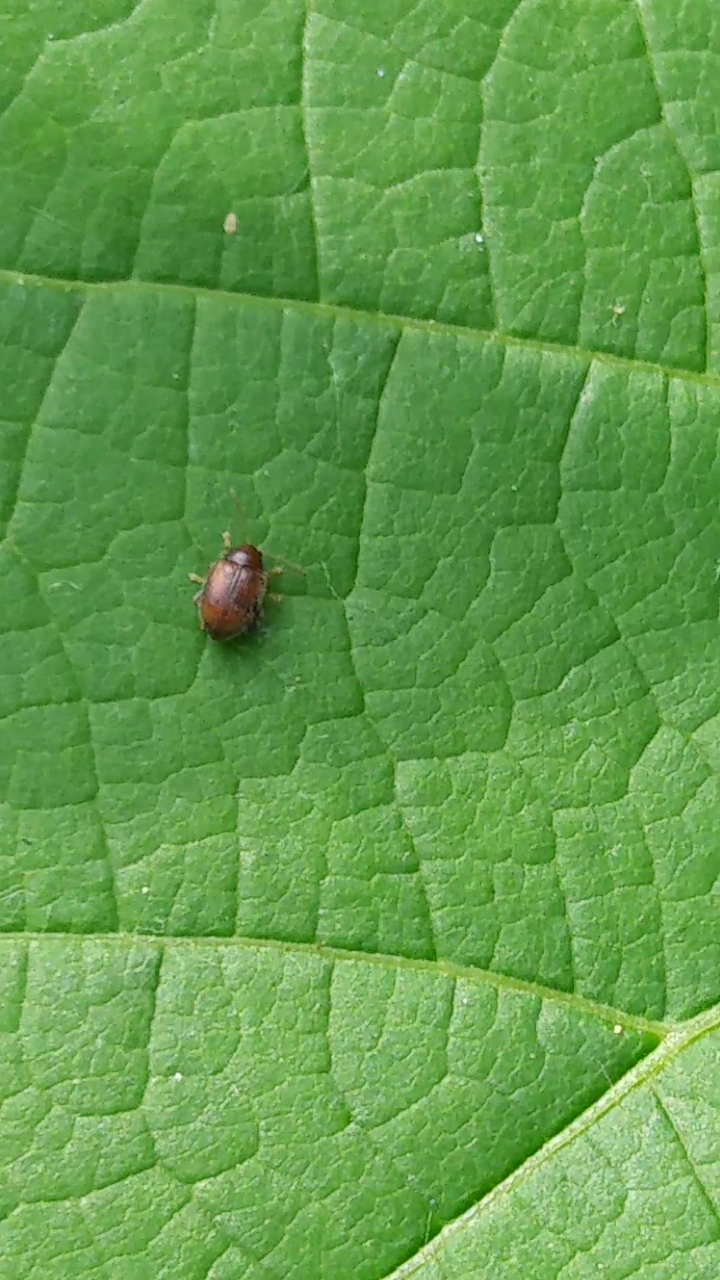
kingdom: Animalia
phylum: Arthropoda
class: Insecta
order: Coleoptera
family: Chrysomelidae
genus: Epitrix
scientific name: Epitrix hirtipennis
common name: Tobacco flea beetle
